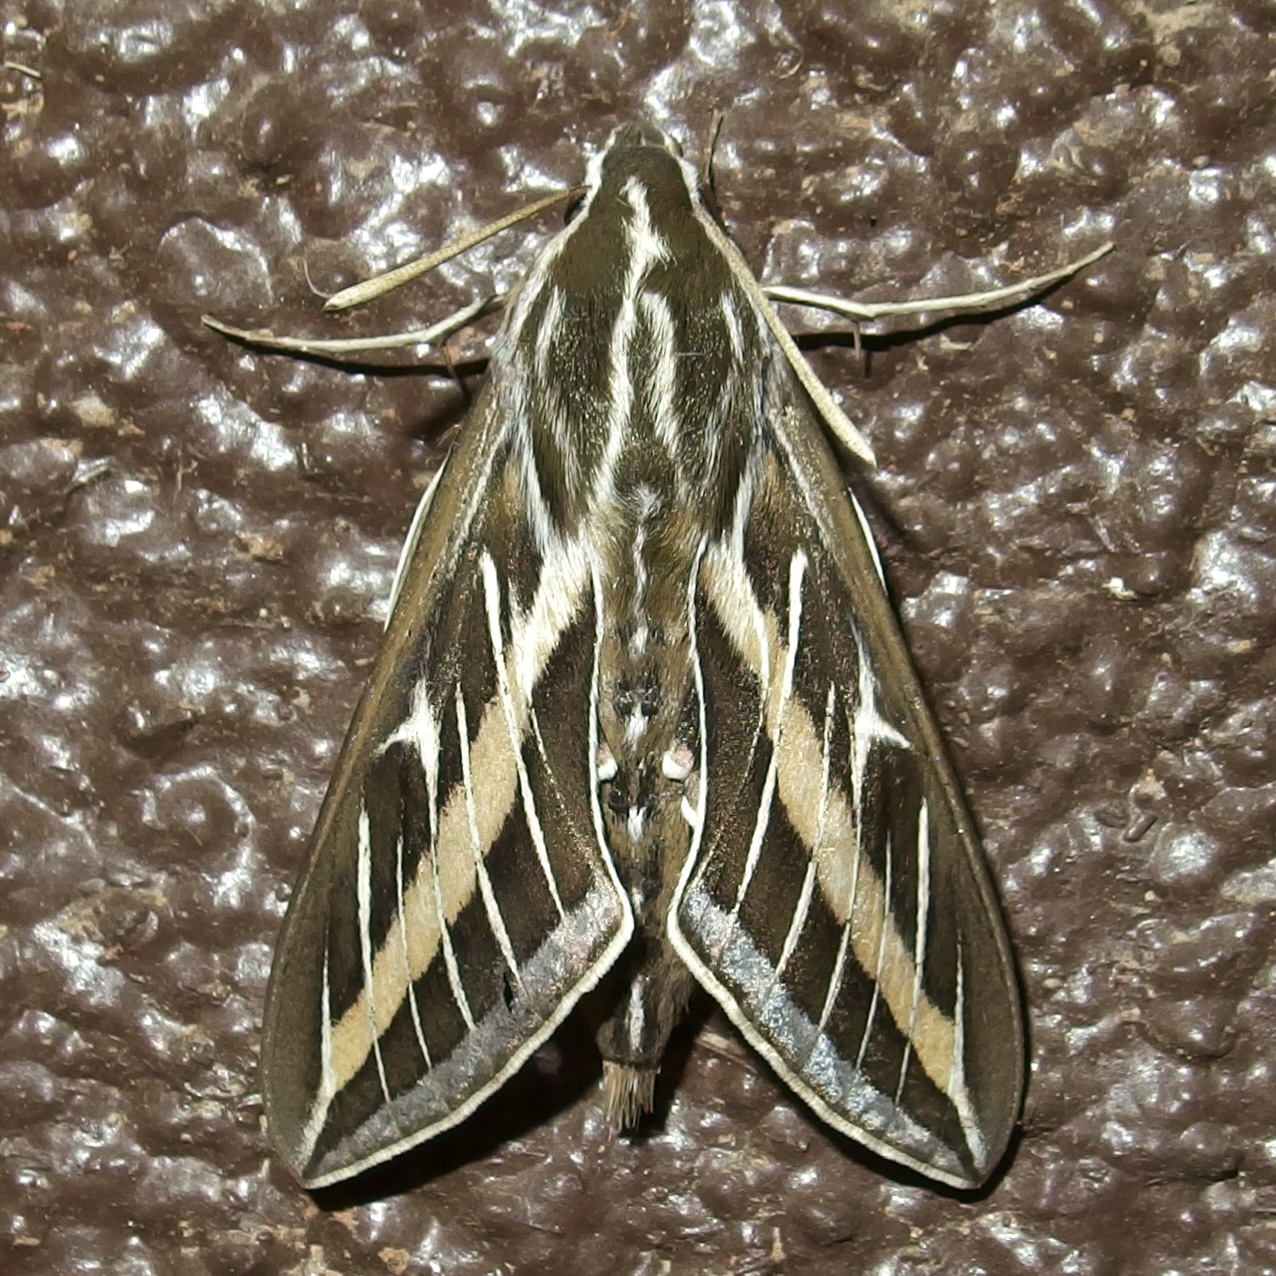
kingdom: Animalia
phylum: Arthropoda
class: Insecta
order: Lepidoptera
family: Sphingidae
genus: Hyles
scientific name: Hyles lineata
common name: White-lined sphinx
